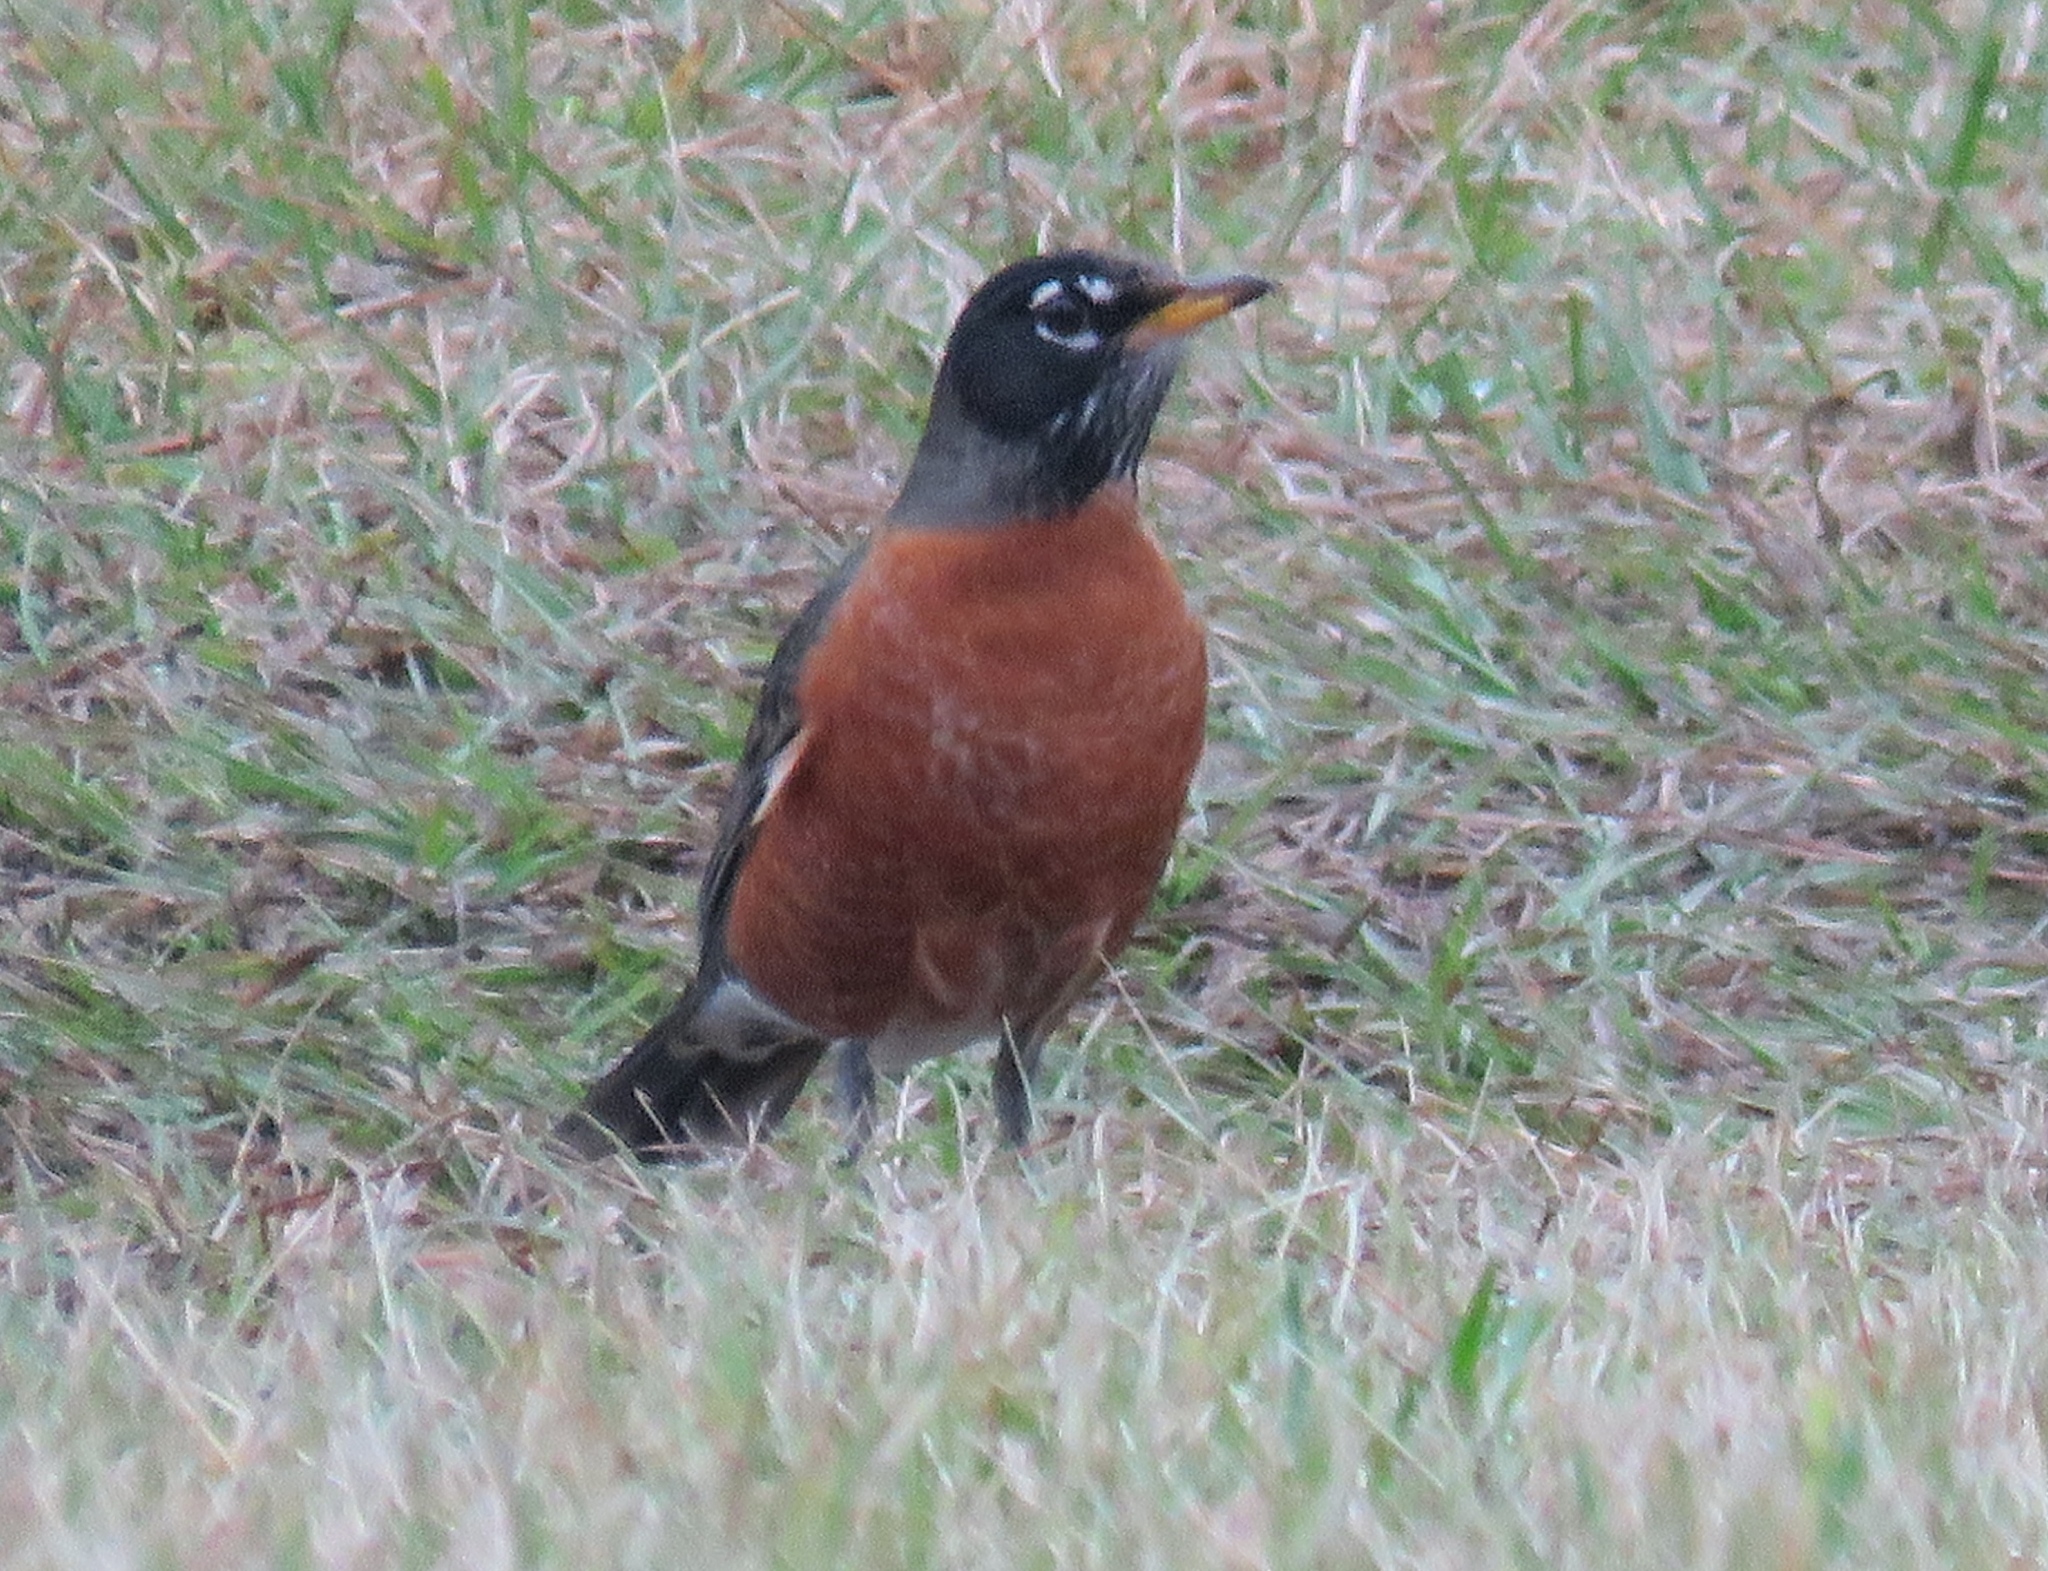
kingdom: Animalia
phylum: Chordata
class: Aves
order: Passeriformes
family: Turdidae
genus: Turdus
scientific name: Turdus migratorius
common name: American robin
